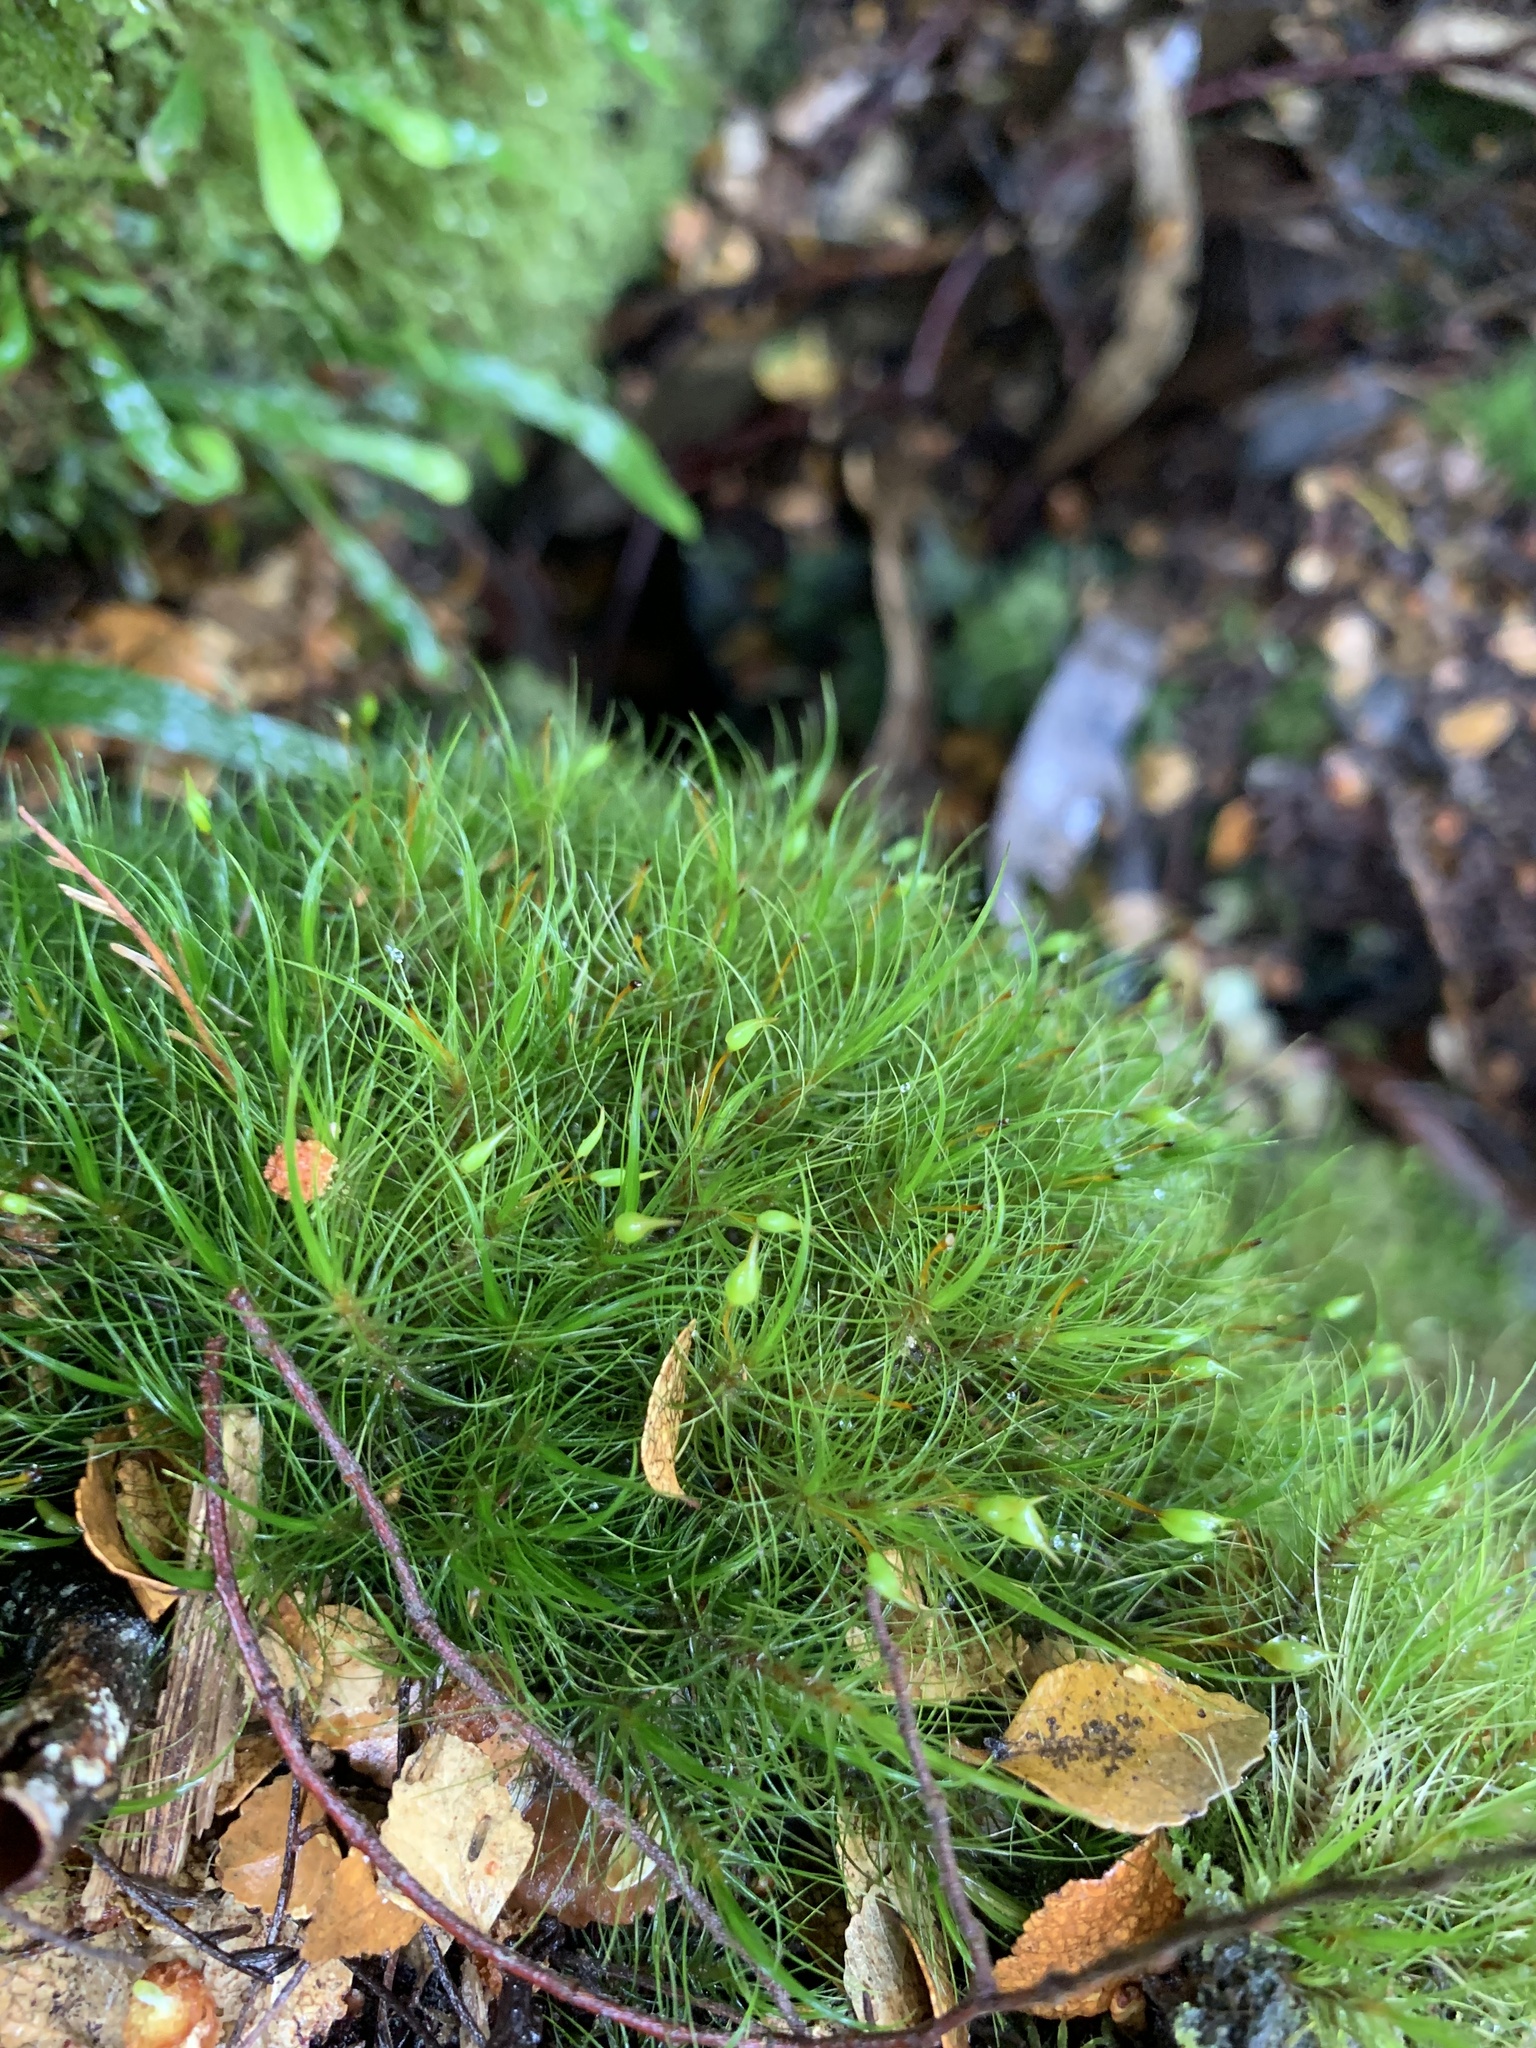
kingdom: Plantae
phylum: Bryophyta
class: Bryopsida
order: Dicranales
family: Dicranaceae
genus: Dicranoloma
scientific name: Dicranoloma menziesii
